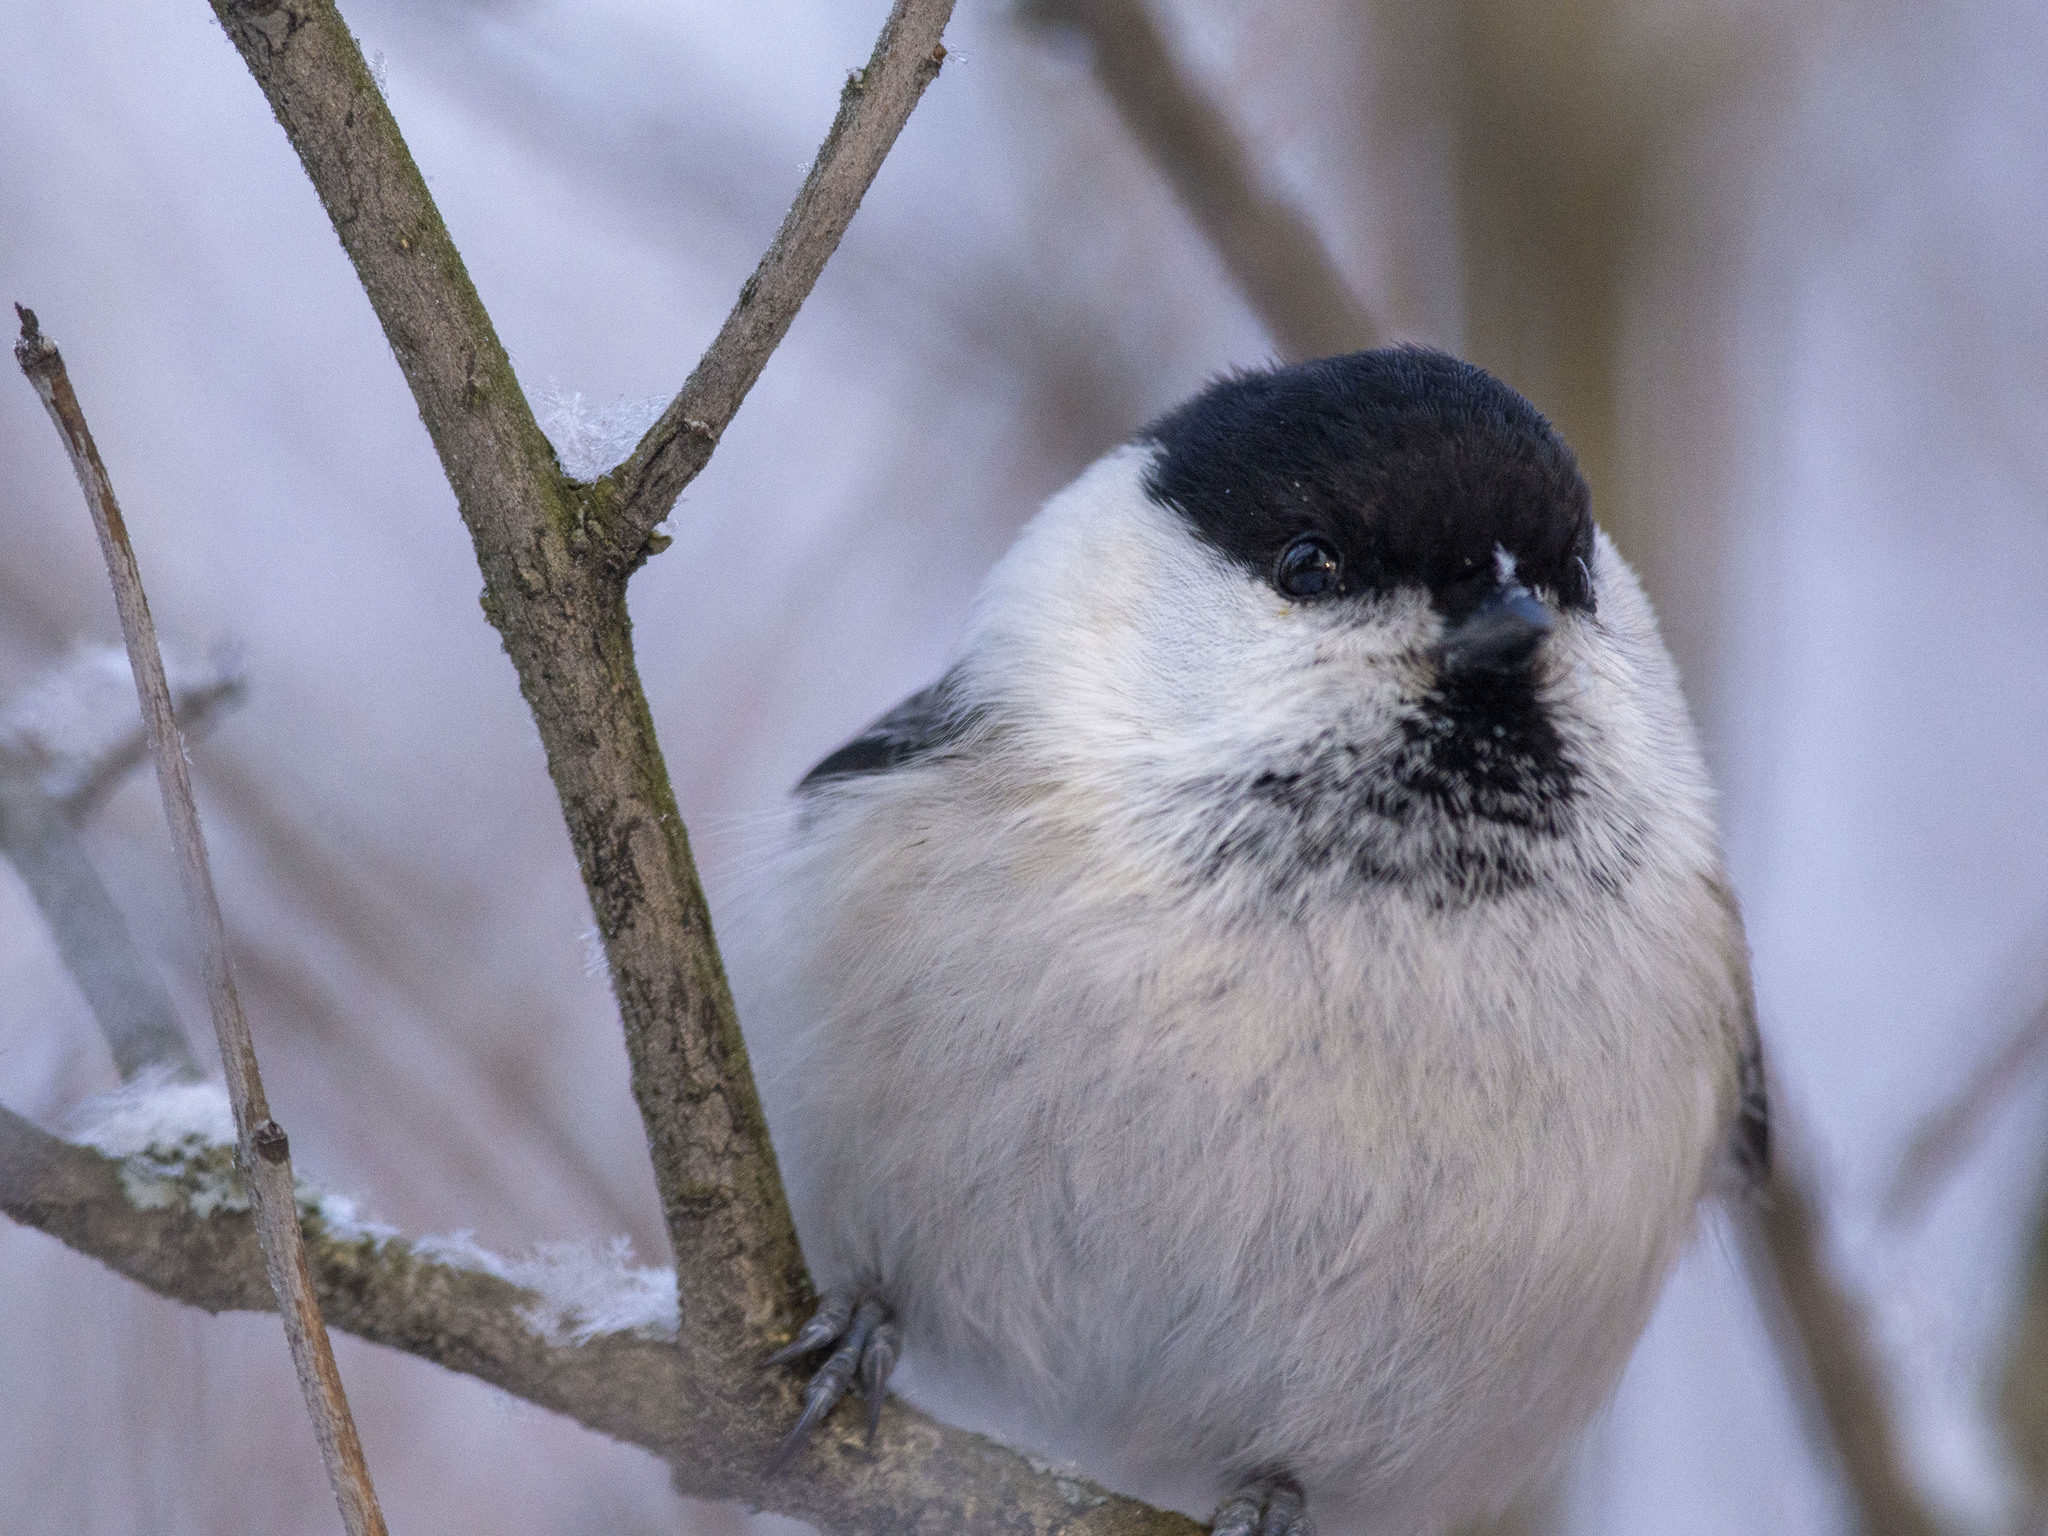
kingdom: Animalia
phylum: Chordata
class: Aves
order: Passeriformes
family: Paridae
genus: Poecile
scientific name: Poecile montanus
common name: Willow tit
